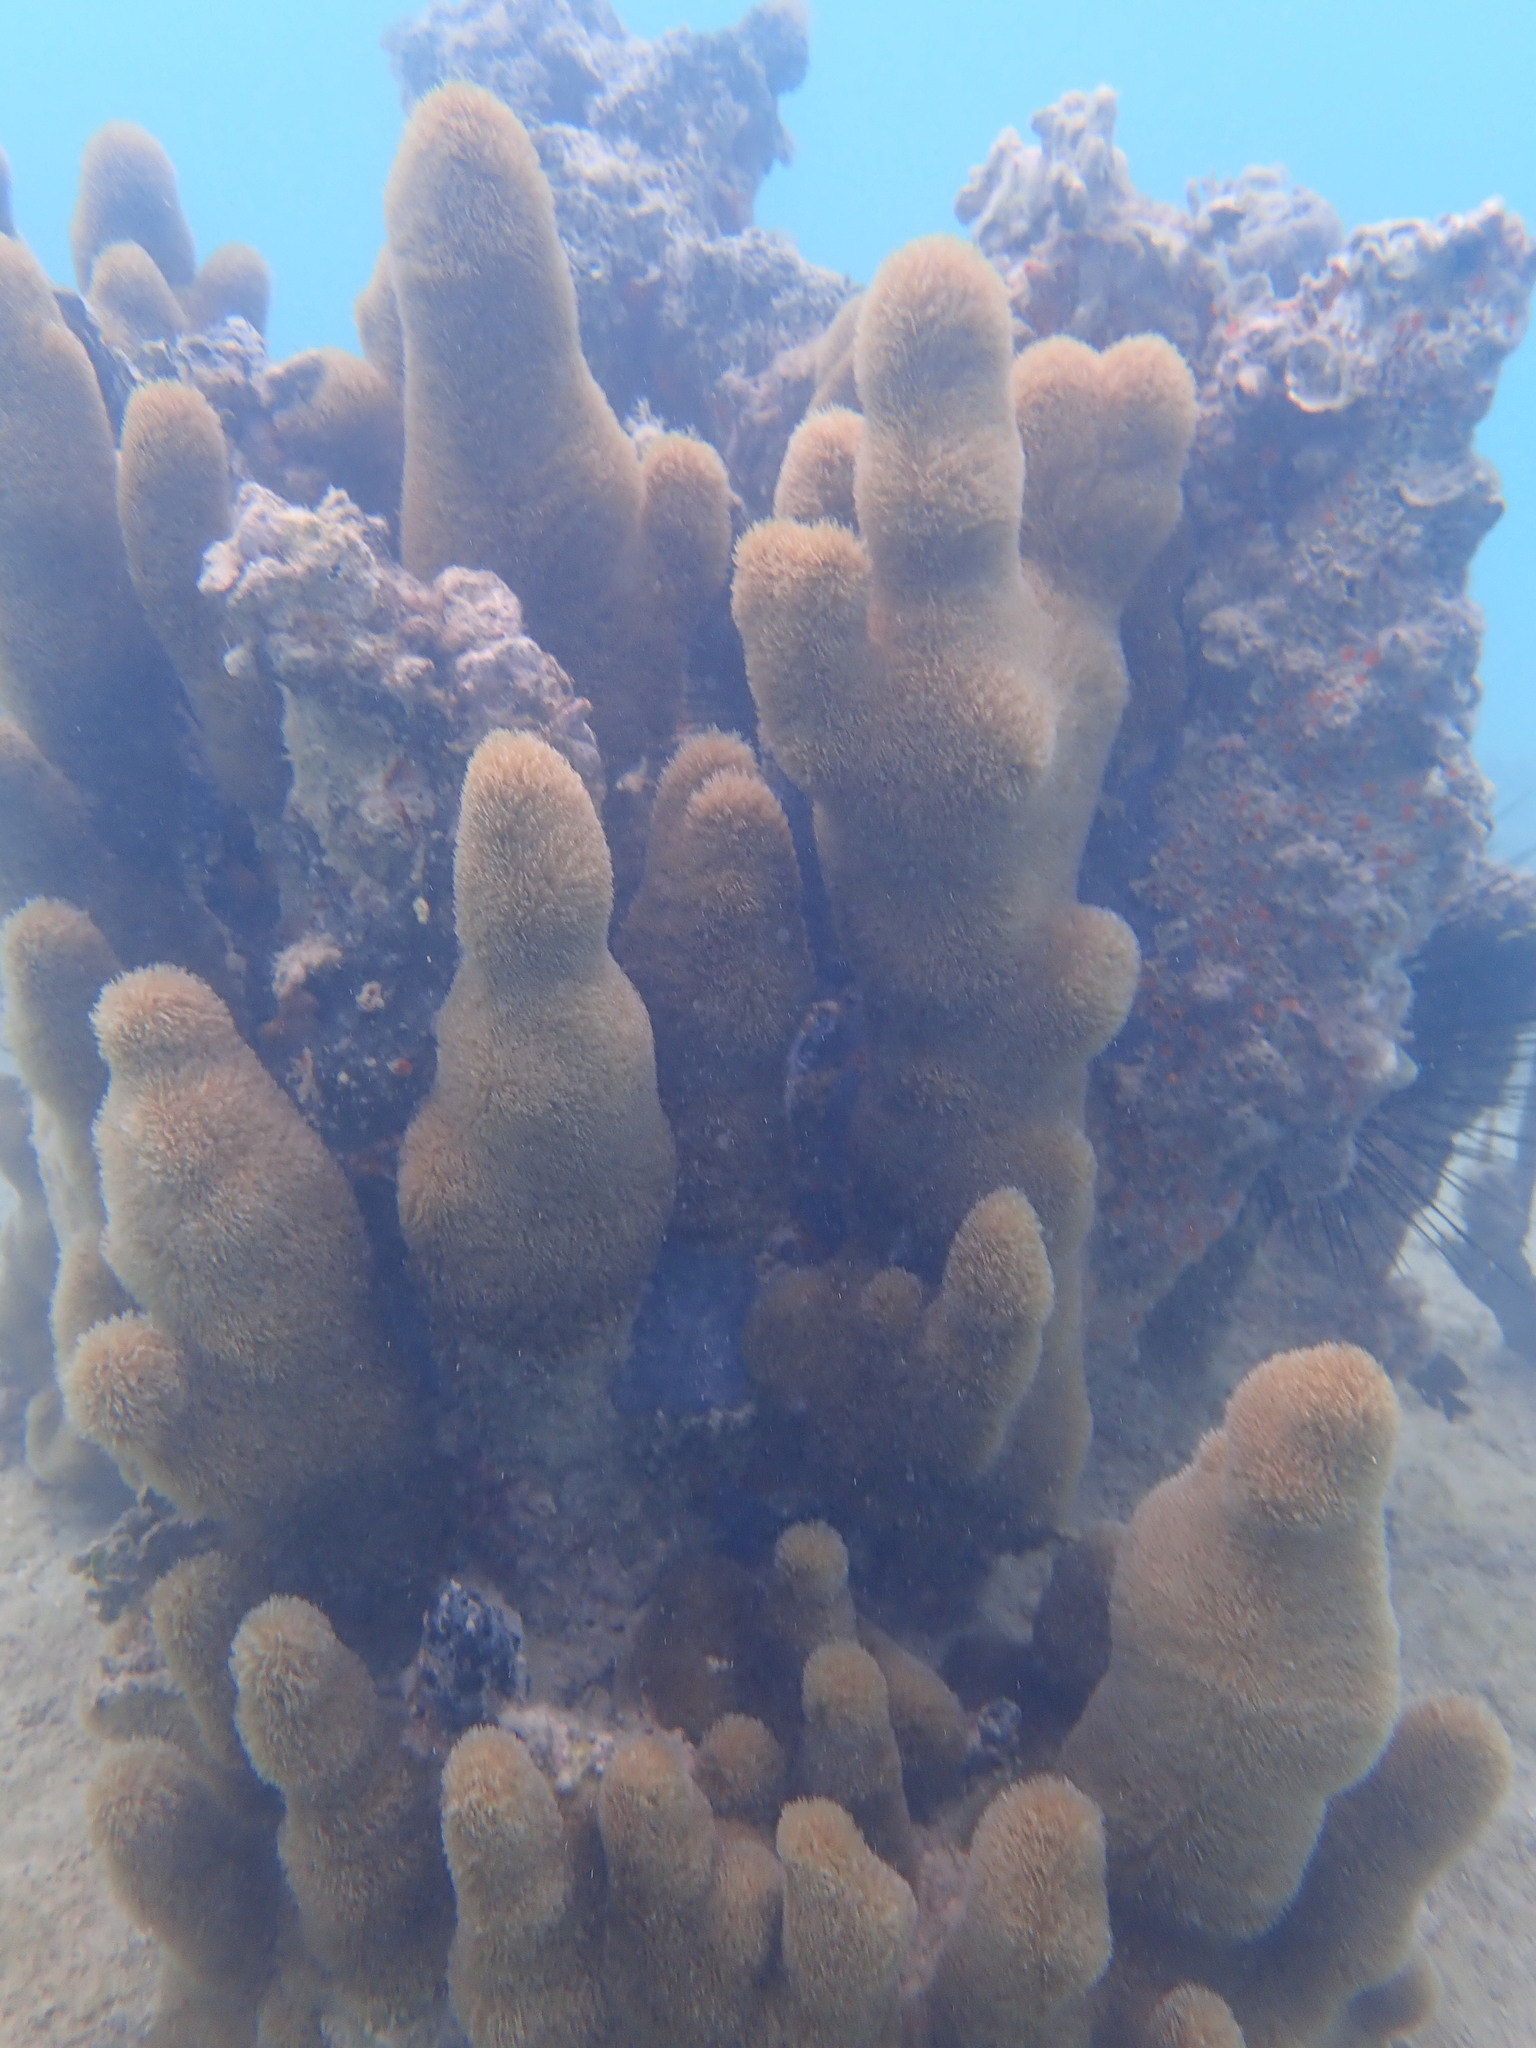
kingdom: Animalia
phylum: Cnidaria
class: Anthozoa
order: Scleractinia
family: Meandrinidae
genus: Dendrogyra
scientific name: Dendrogyra cylindrus
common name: Pillar coral
